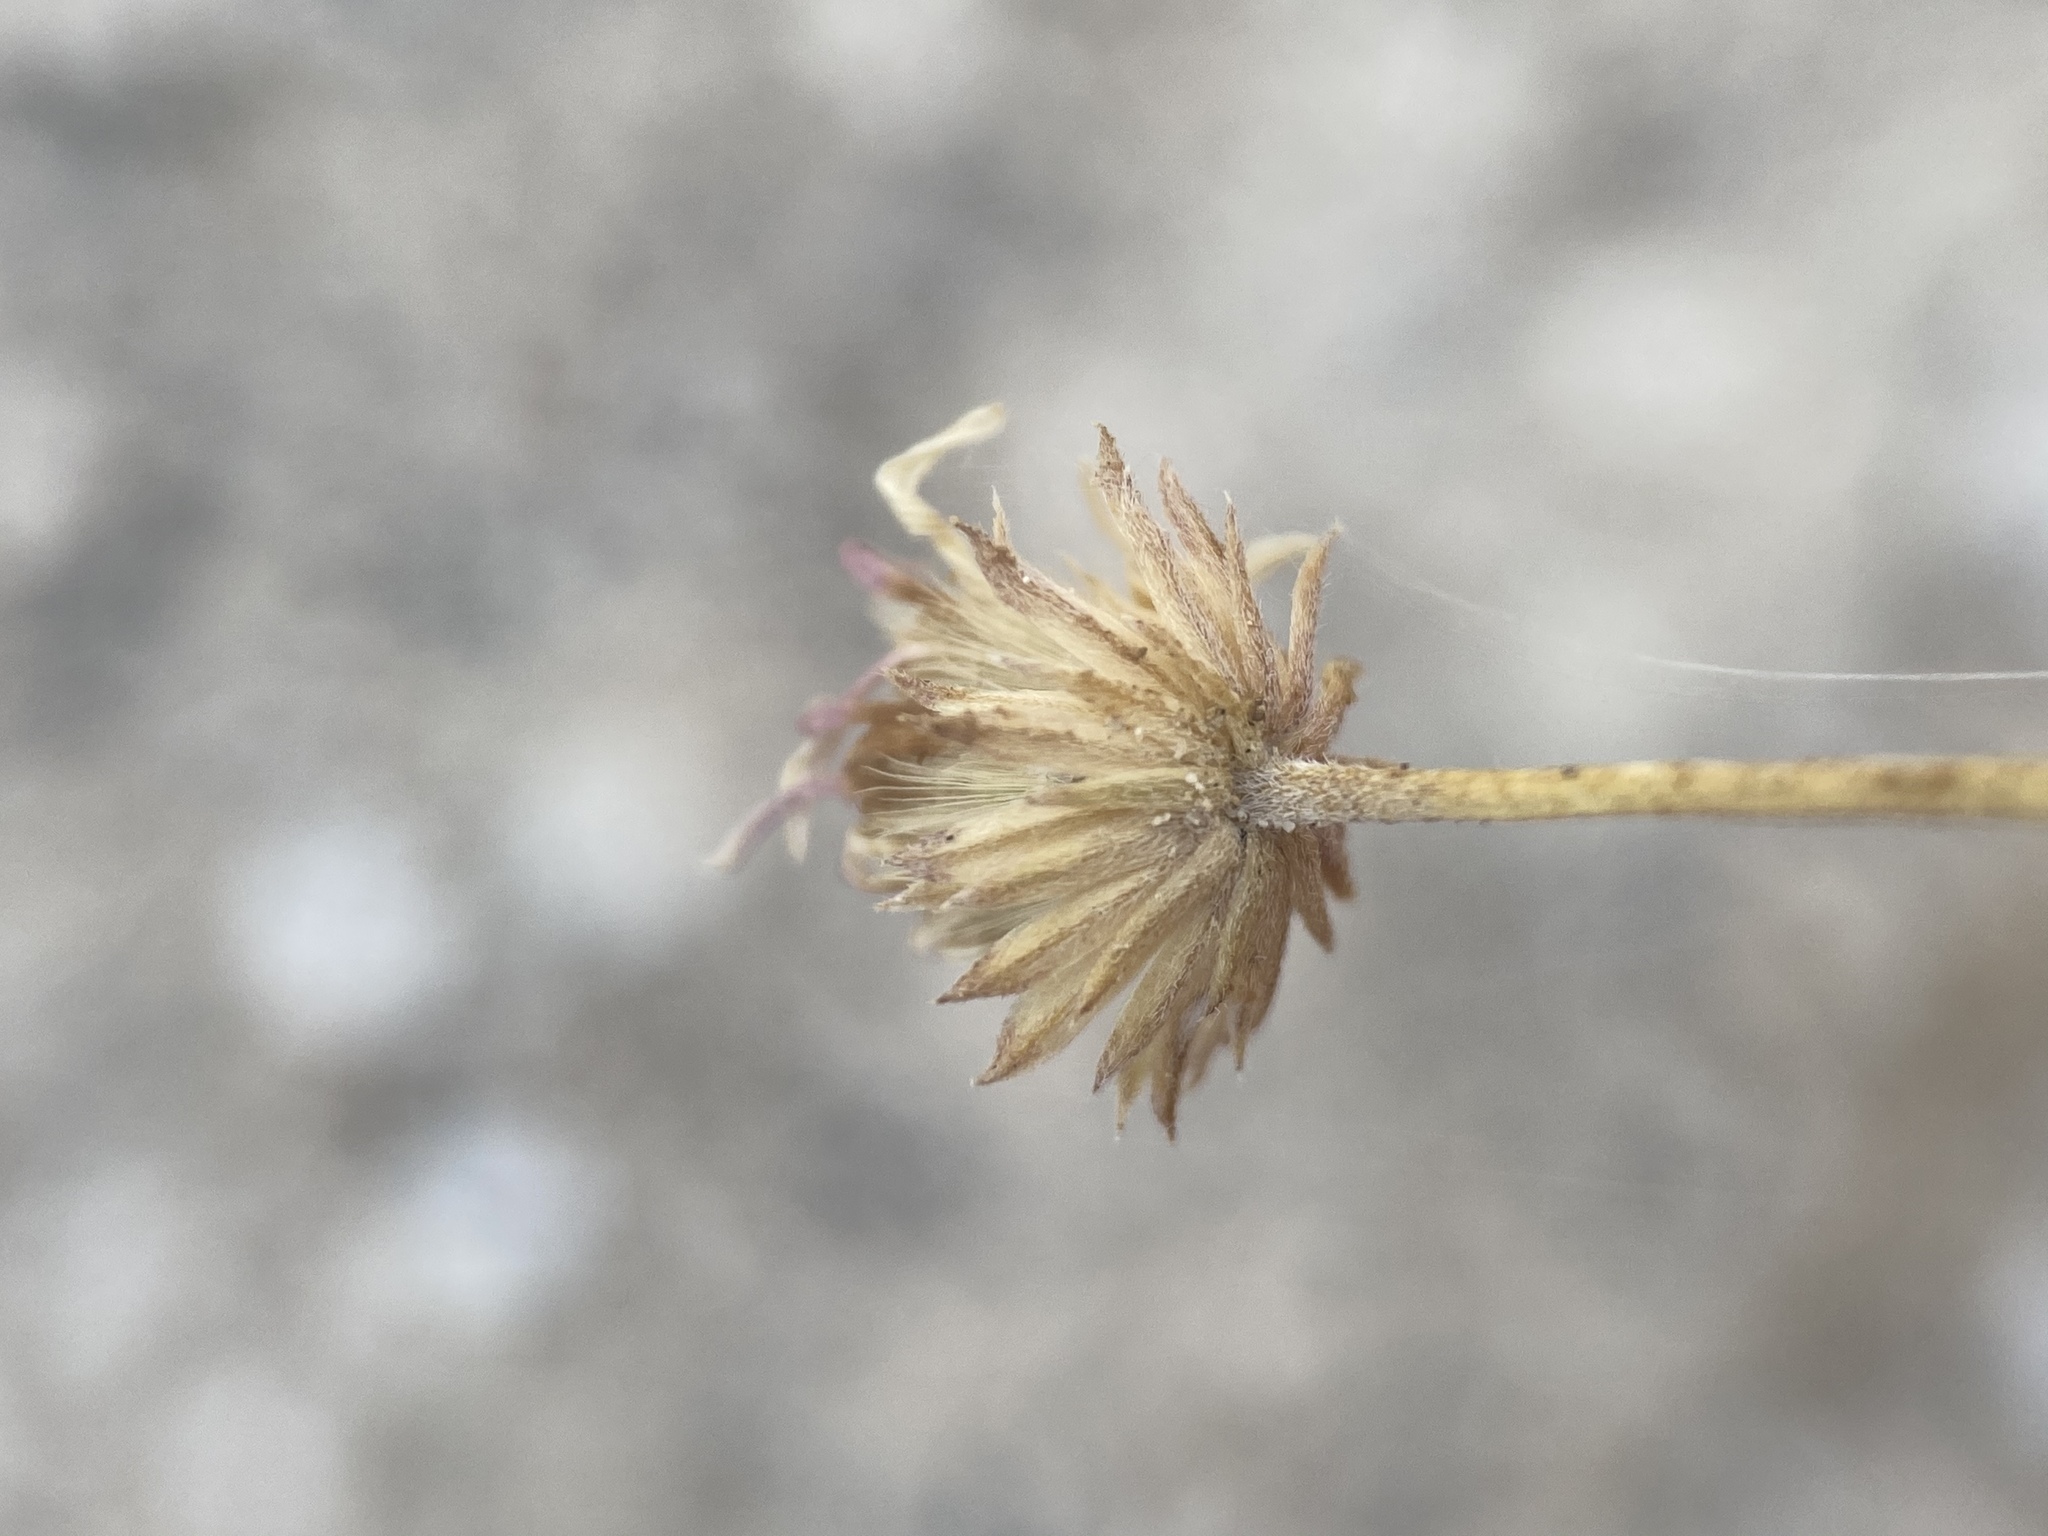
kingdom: Plantae
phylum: Tracheophyta
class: Magnoliopsida
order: Asterales
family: Asteraceae
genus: Erigeron
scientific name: Erigeron compactus
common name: Fern-leaf fleabane
